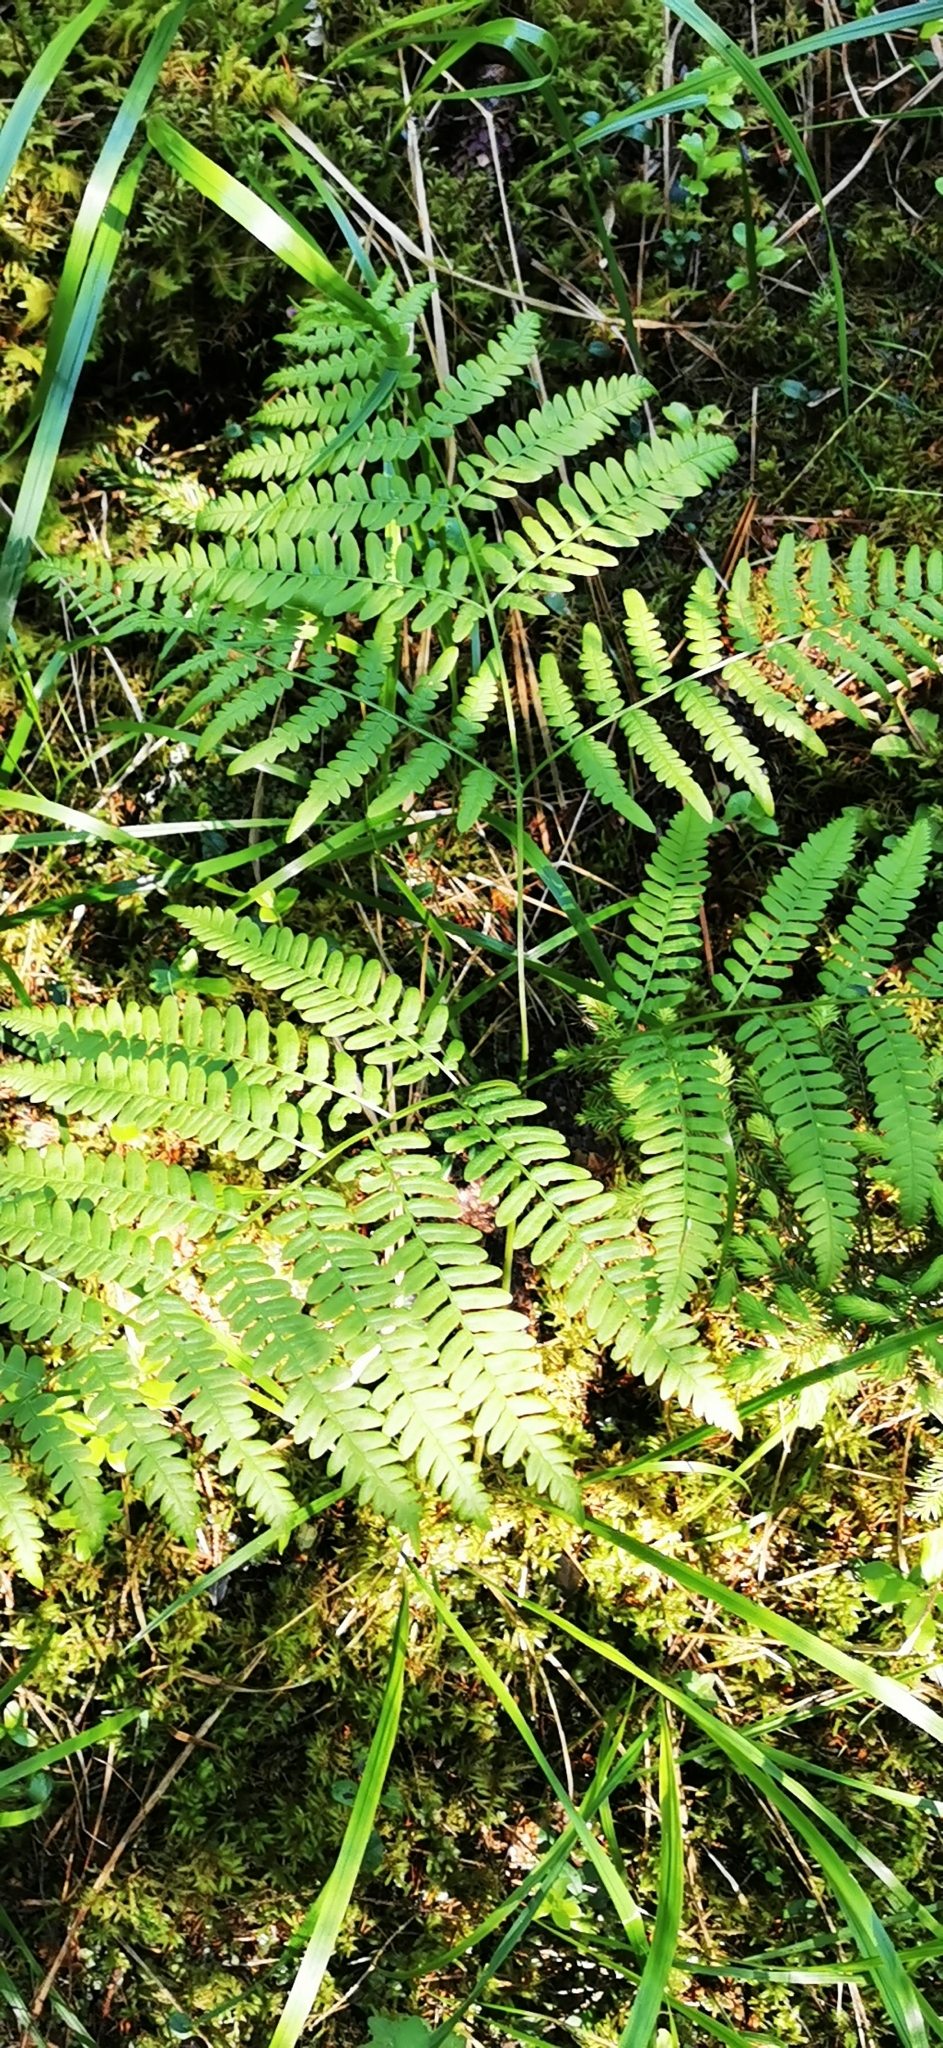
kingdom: Plantae
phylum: Tracheophyta
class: Polypodiopsida
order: Polypodiales
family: Dennstaedtiaceae
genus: Pteridium
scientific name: Pteridium aquilinum
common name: Bracken
